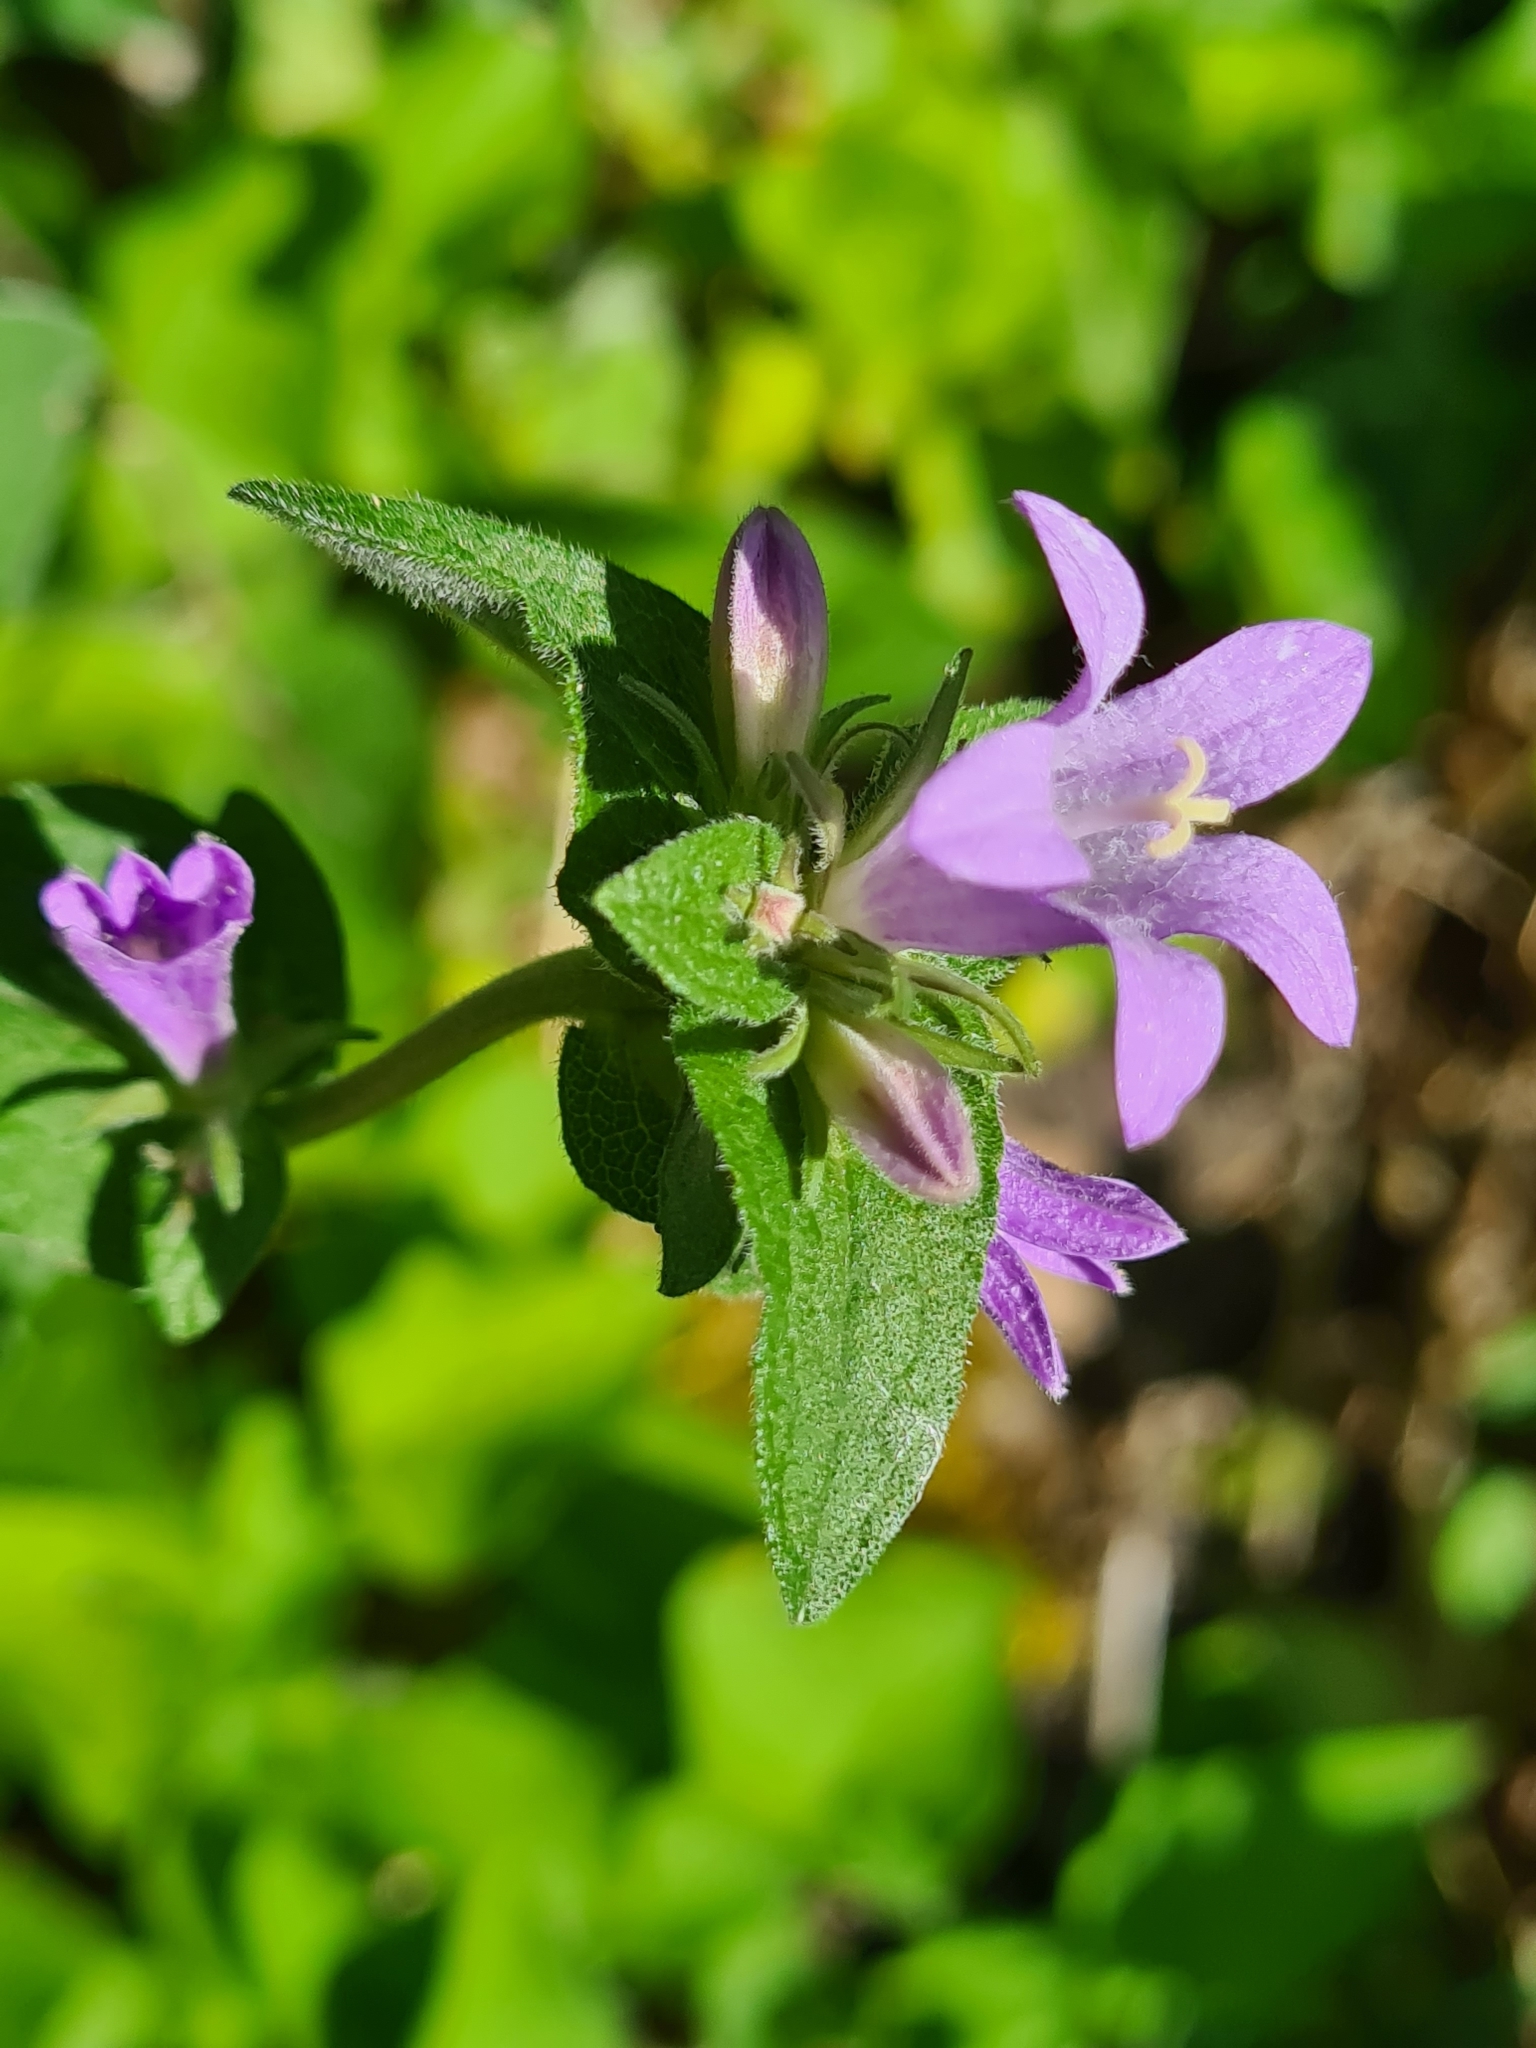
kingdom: Plantae
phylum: Tracheophyta
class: Magnoliopsida
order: Asterales
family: Campanulaceae
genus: Campanula
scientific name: Campanula glomerata
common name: Clustered bellflower
